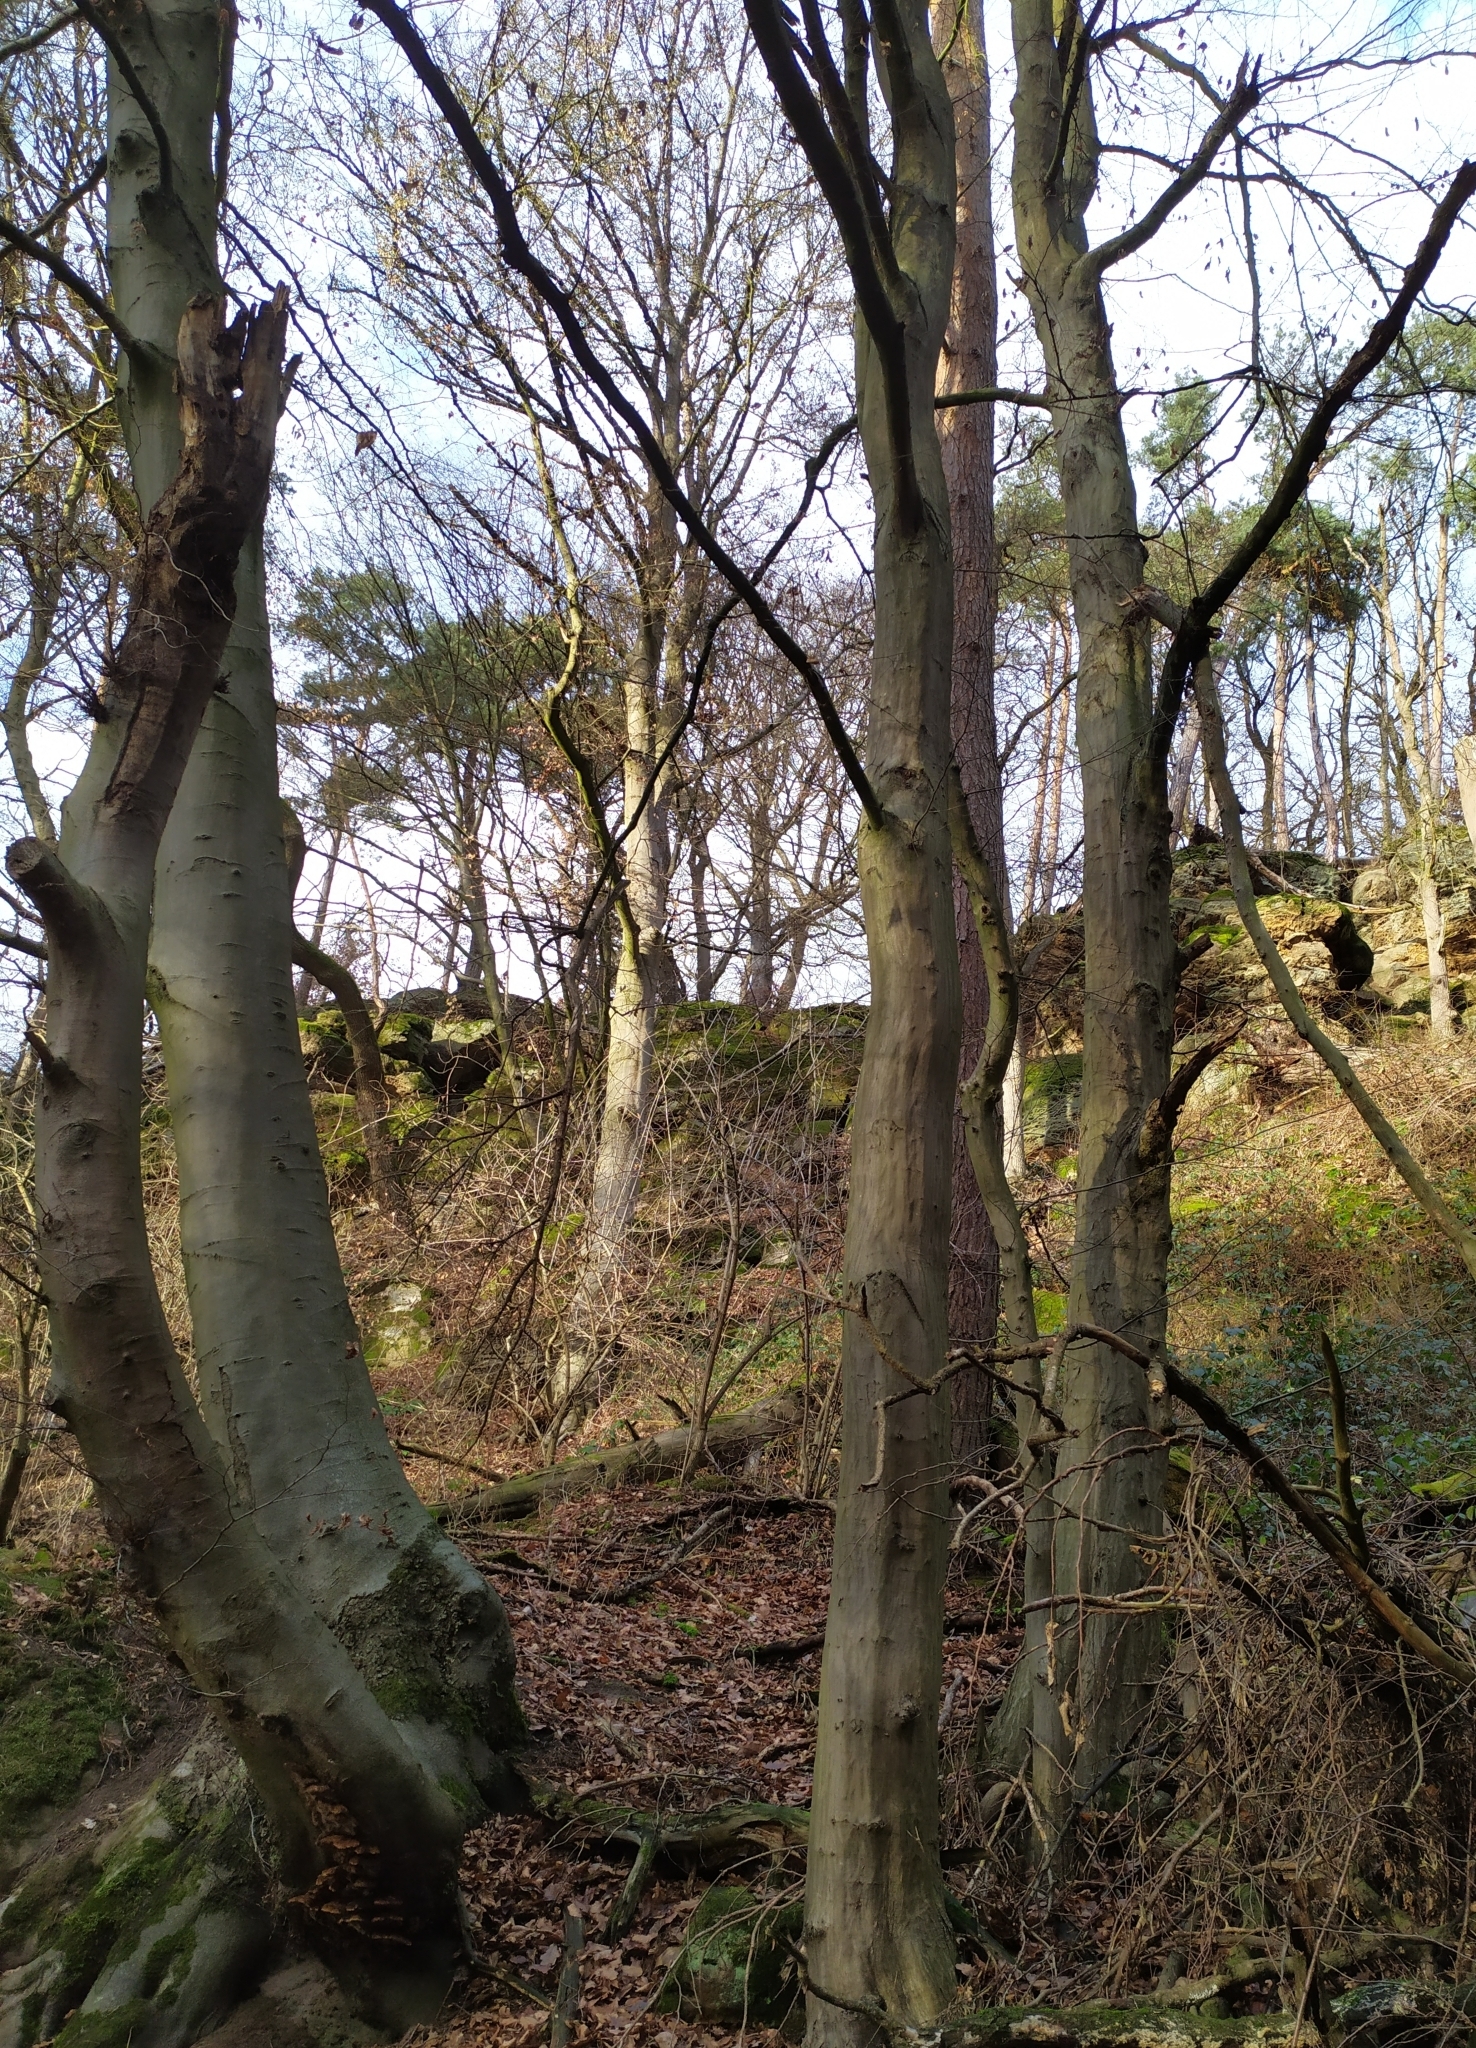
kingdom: Plantae
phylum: Tracheophyta
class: Magnoliopsida
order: Fagales
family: Fagaceae
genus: Fagus
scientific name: Fagus sylvatica
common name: Beech
